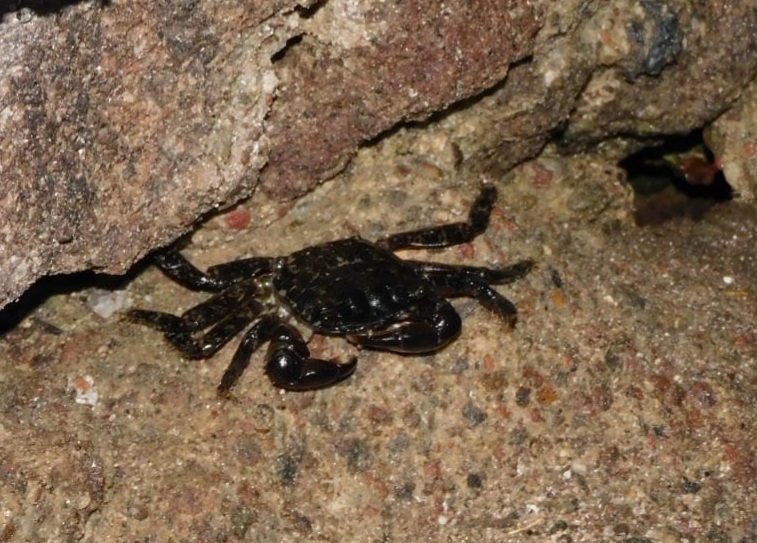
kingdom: Animalia
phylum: Arthropoda
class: Malacostraca
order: Decapoda
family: Grapsidae
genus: Pachygrapsus
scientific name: Pachygrapsus marmoratus
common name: Marbled rock crab
